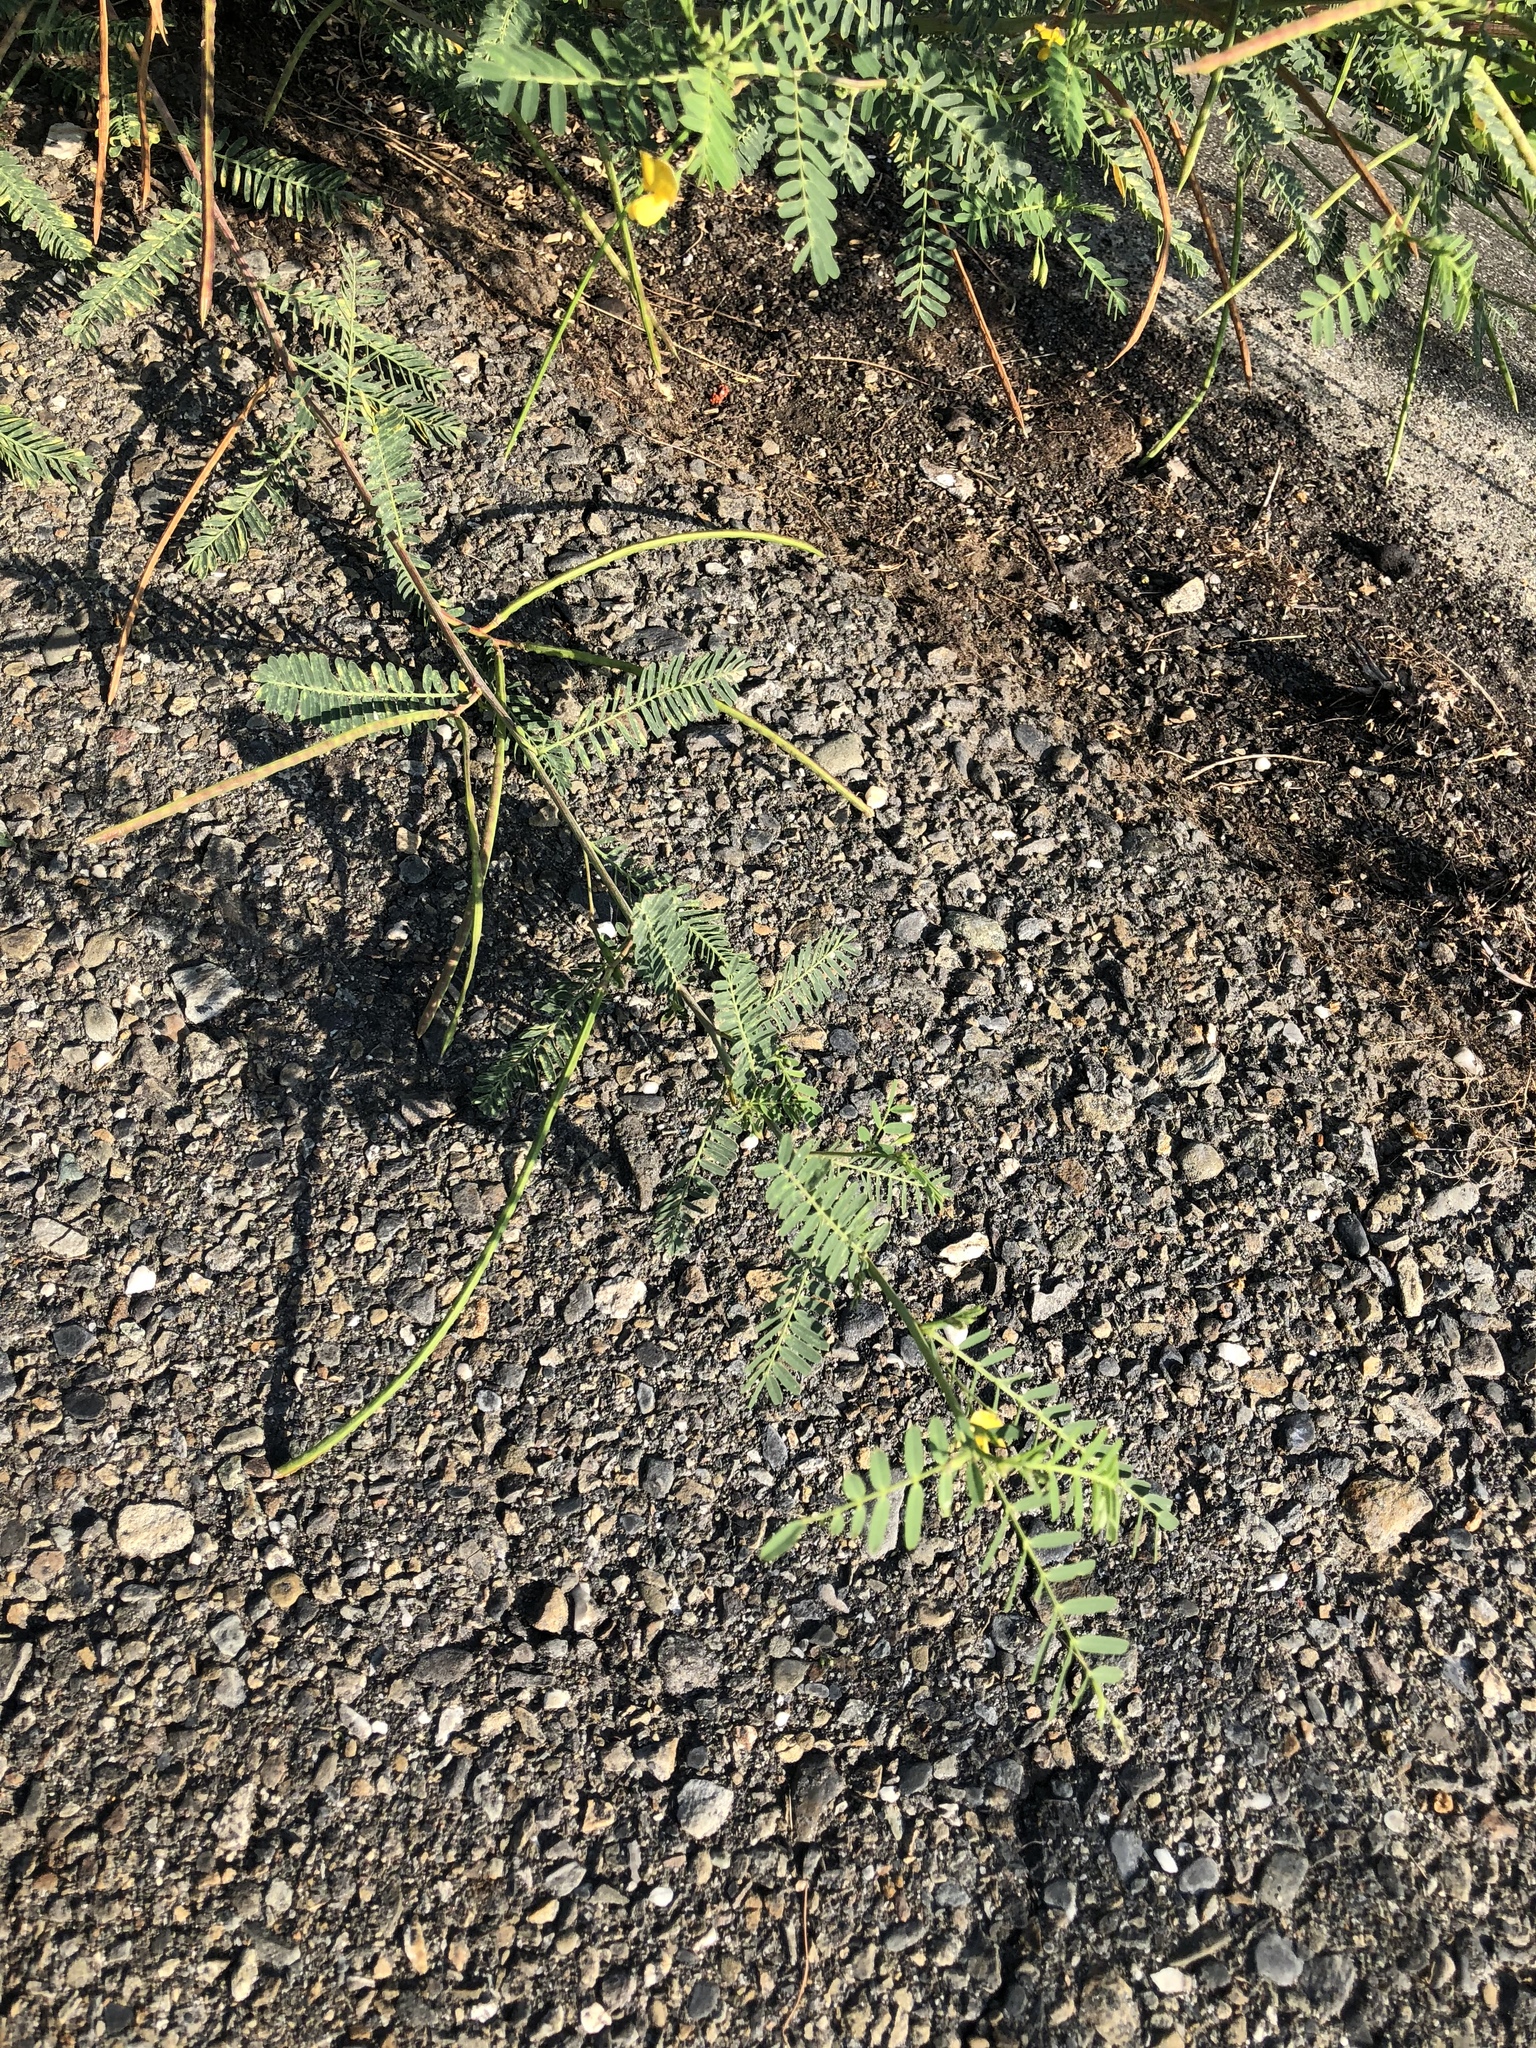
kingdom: Plantae
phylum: Tracheophyta
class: Magnoliopsida
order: Fabales
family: Fabaceae
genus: Sesbania
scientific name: Sesbania cannabina
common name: Canicha
